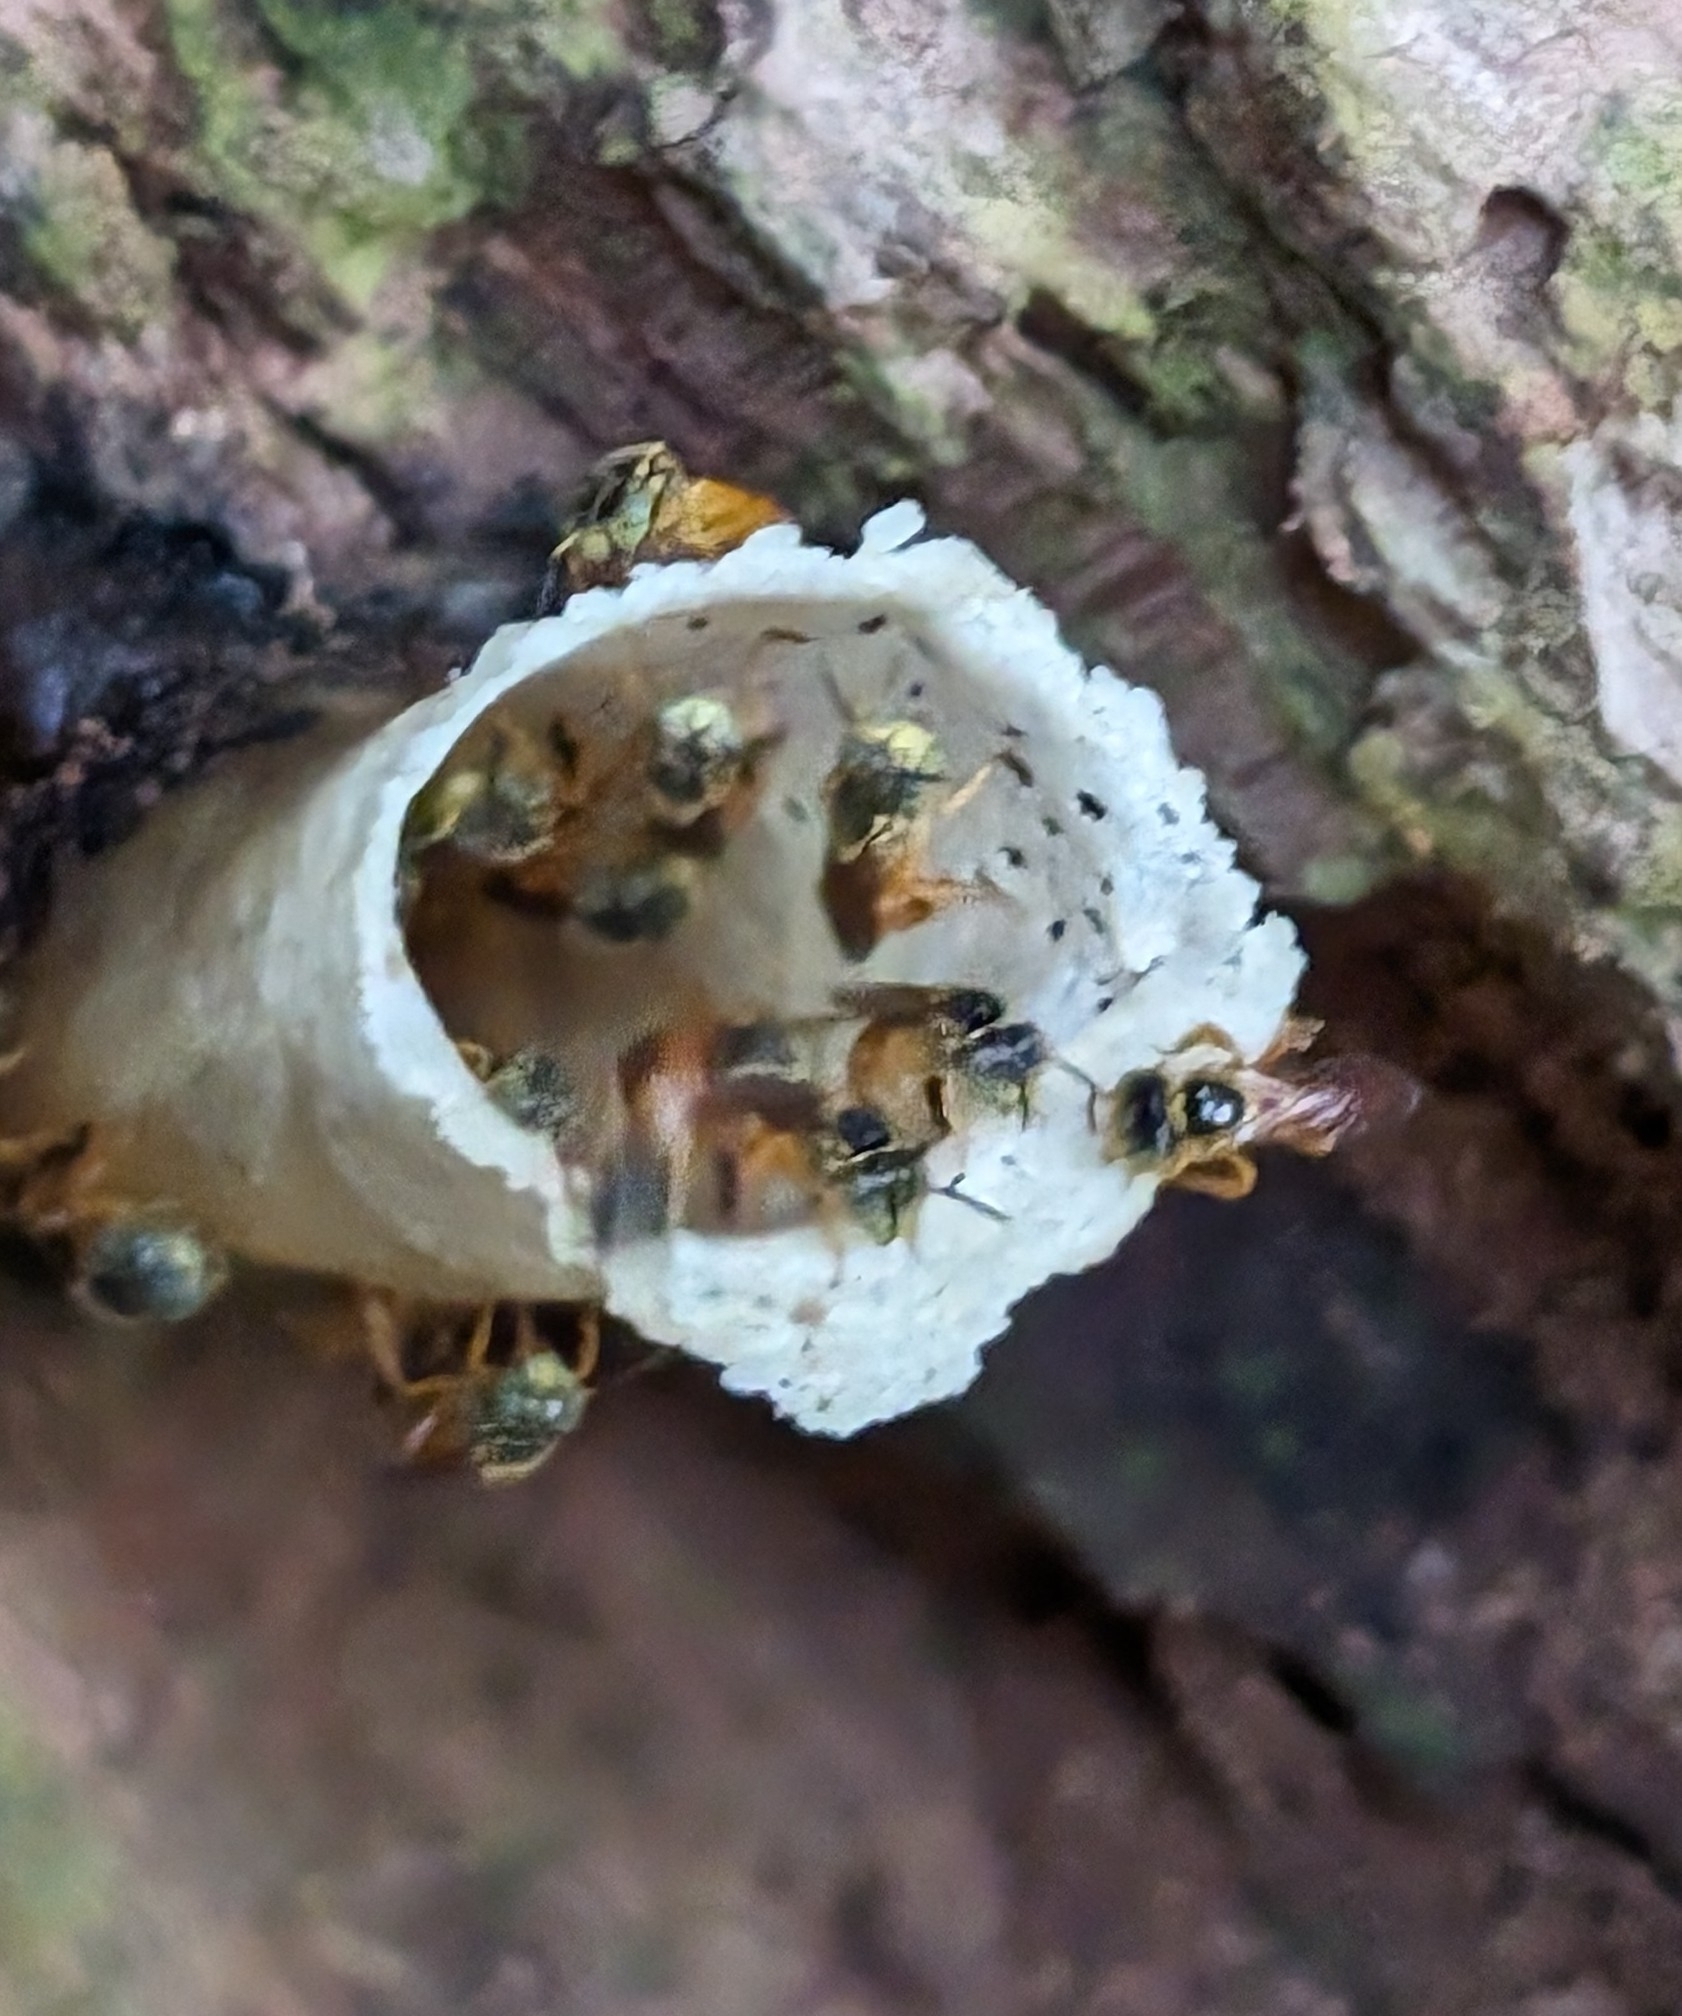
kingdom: Animalia
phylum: Arthropoda
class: Insecta
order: Hymenoptera
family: Apidae
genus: Tetragonisca
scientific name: Tetragonisca angustula
